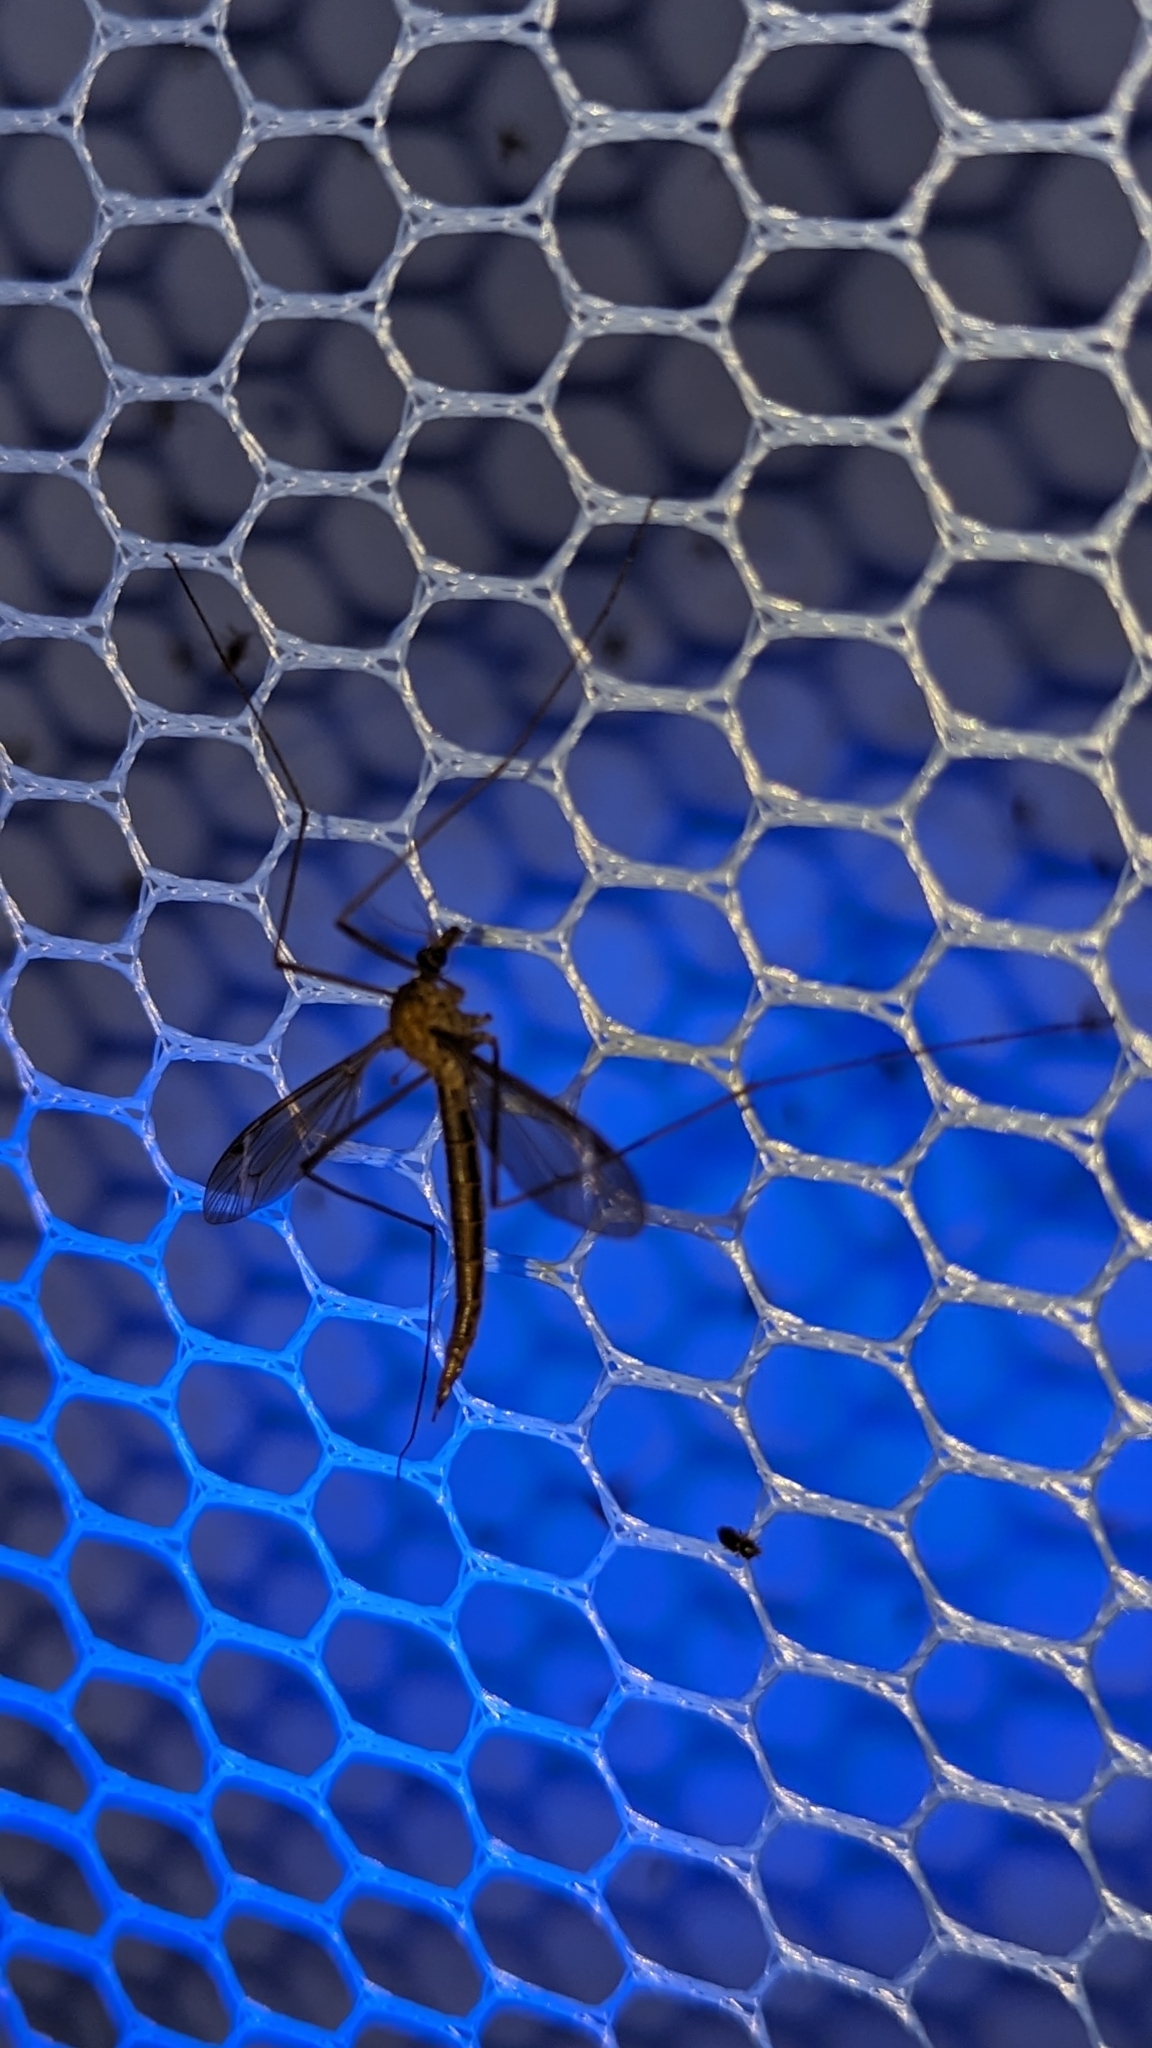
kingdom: Animalia
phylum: Arthropoda
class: Insecta
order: Diptera
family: Tipulidae
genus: Tipula
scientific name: Tipula
